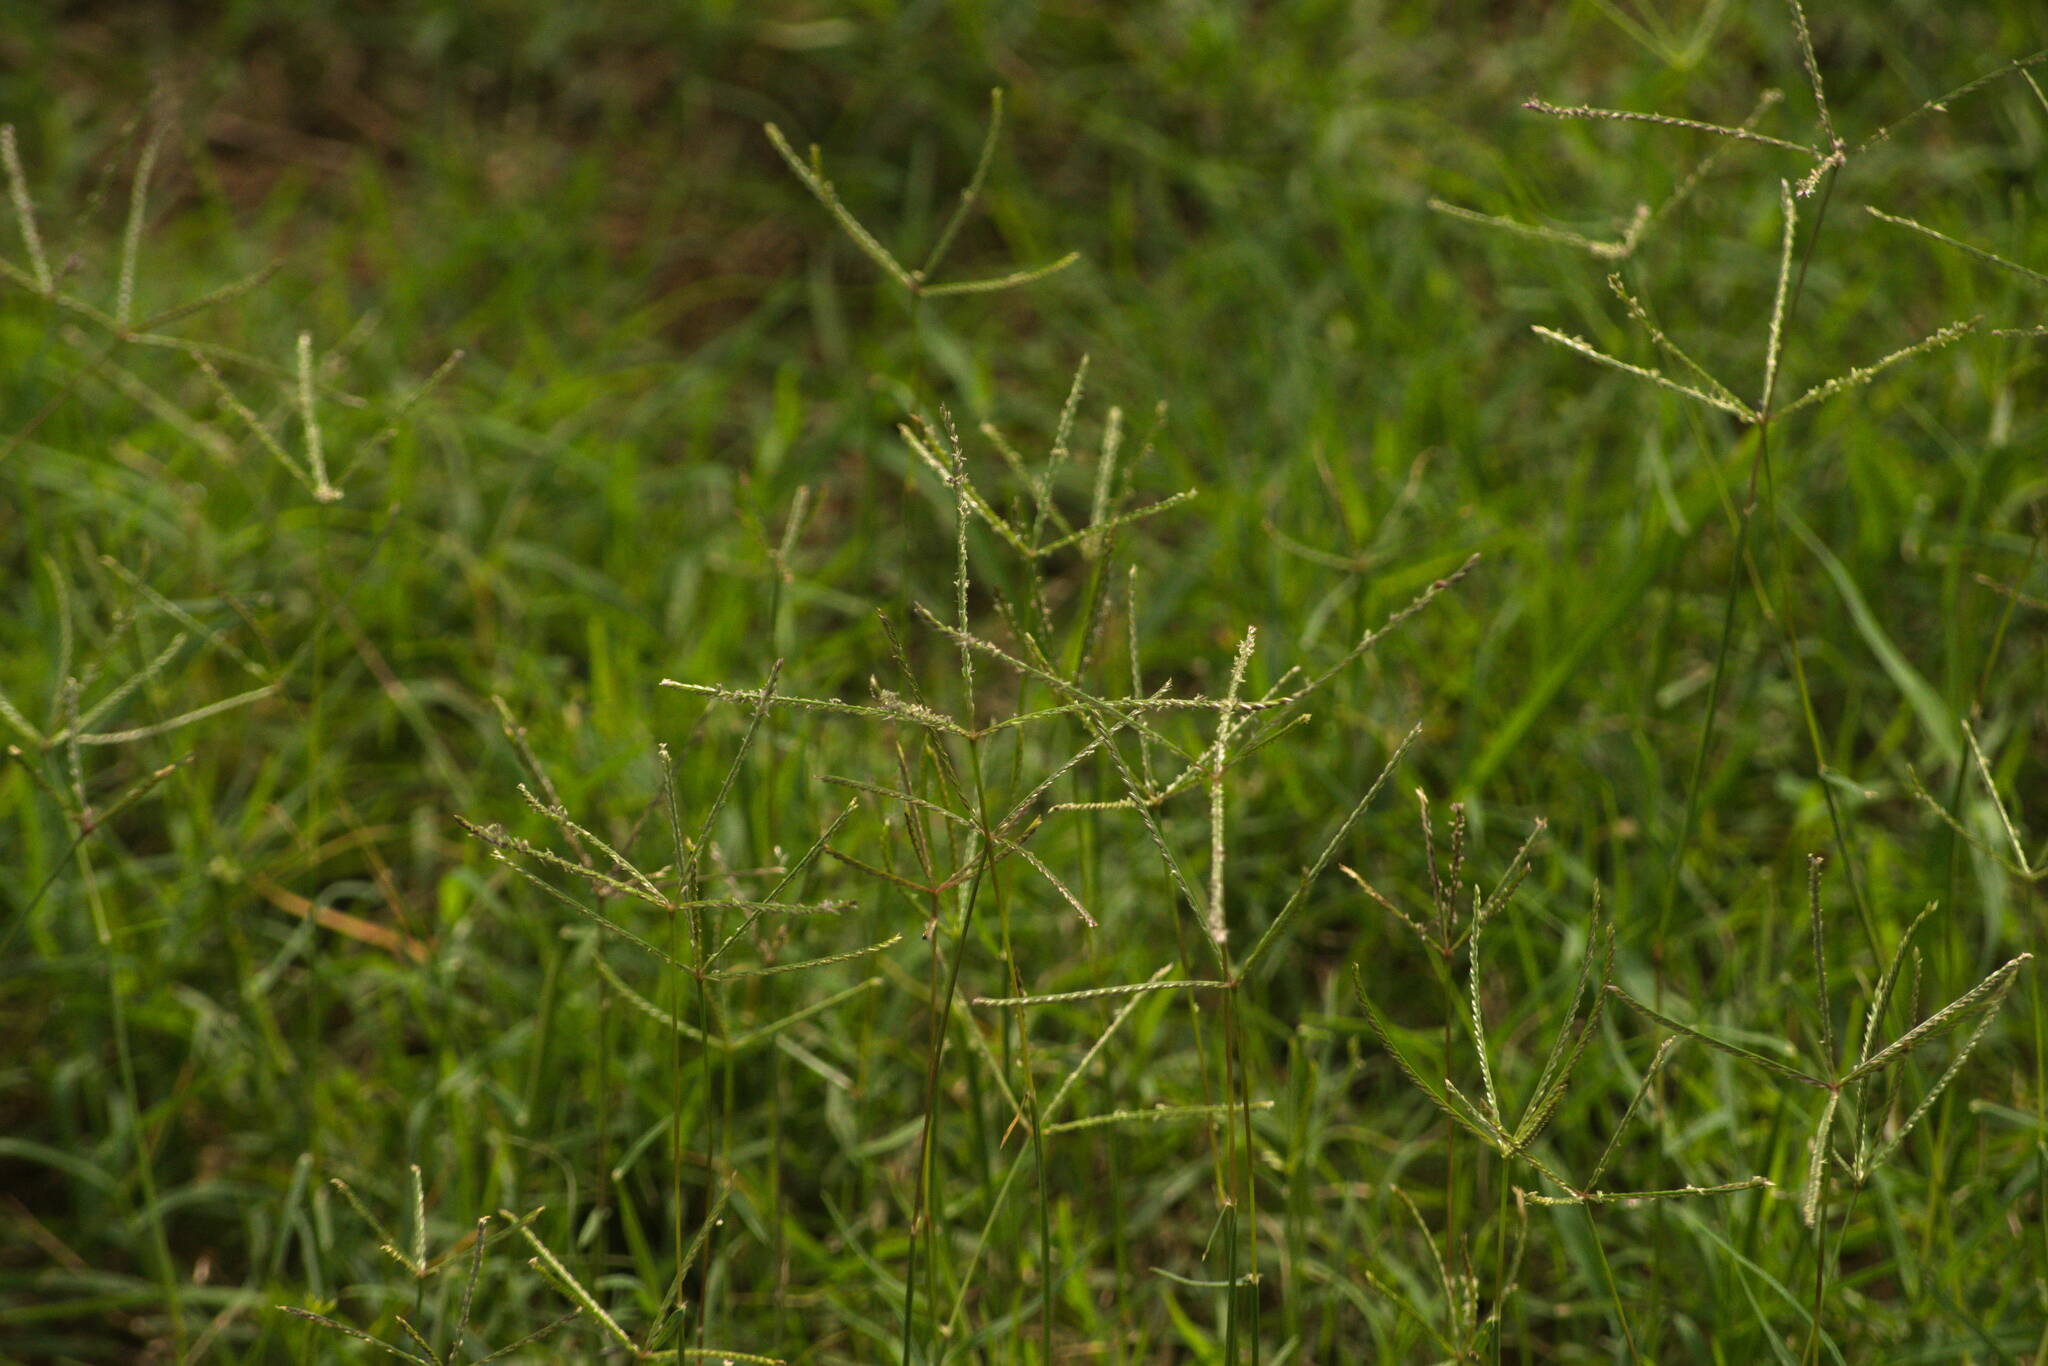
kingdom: Plantae
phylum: Tracheophyta
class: Liliopsida
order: Poales
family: Poaceae
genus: Cynodon
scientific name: Cynodon dactylon
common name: Bermuda grass
